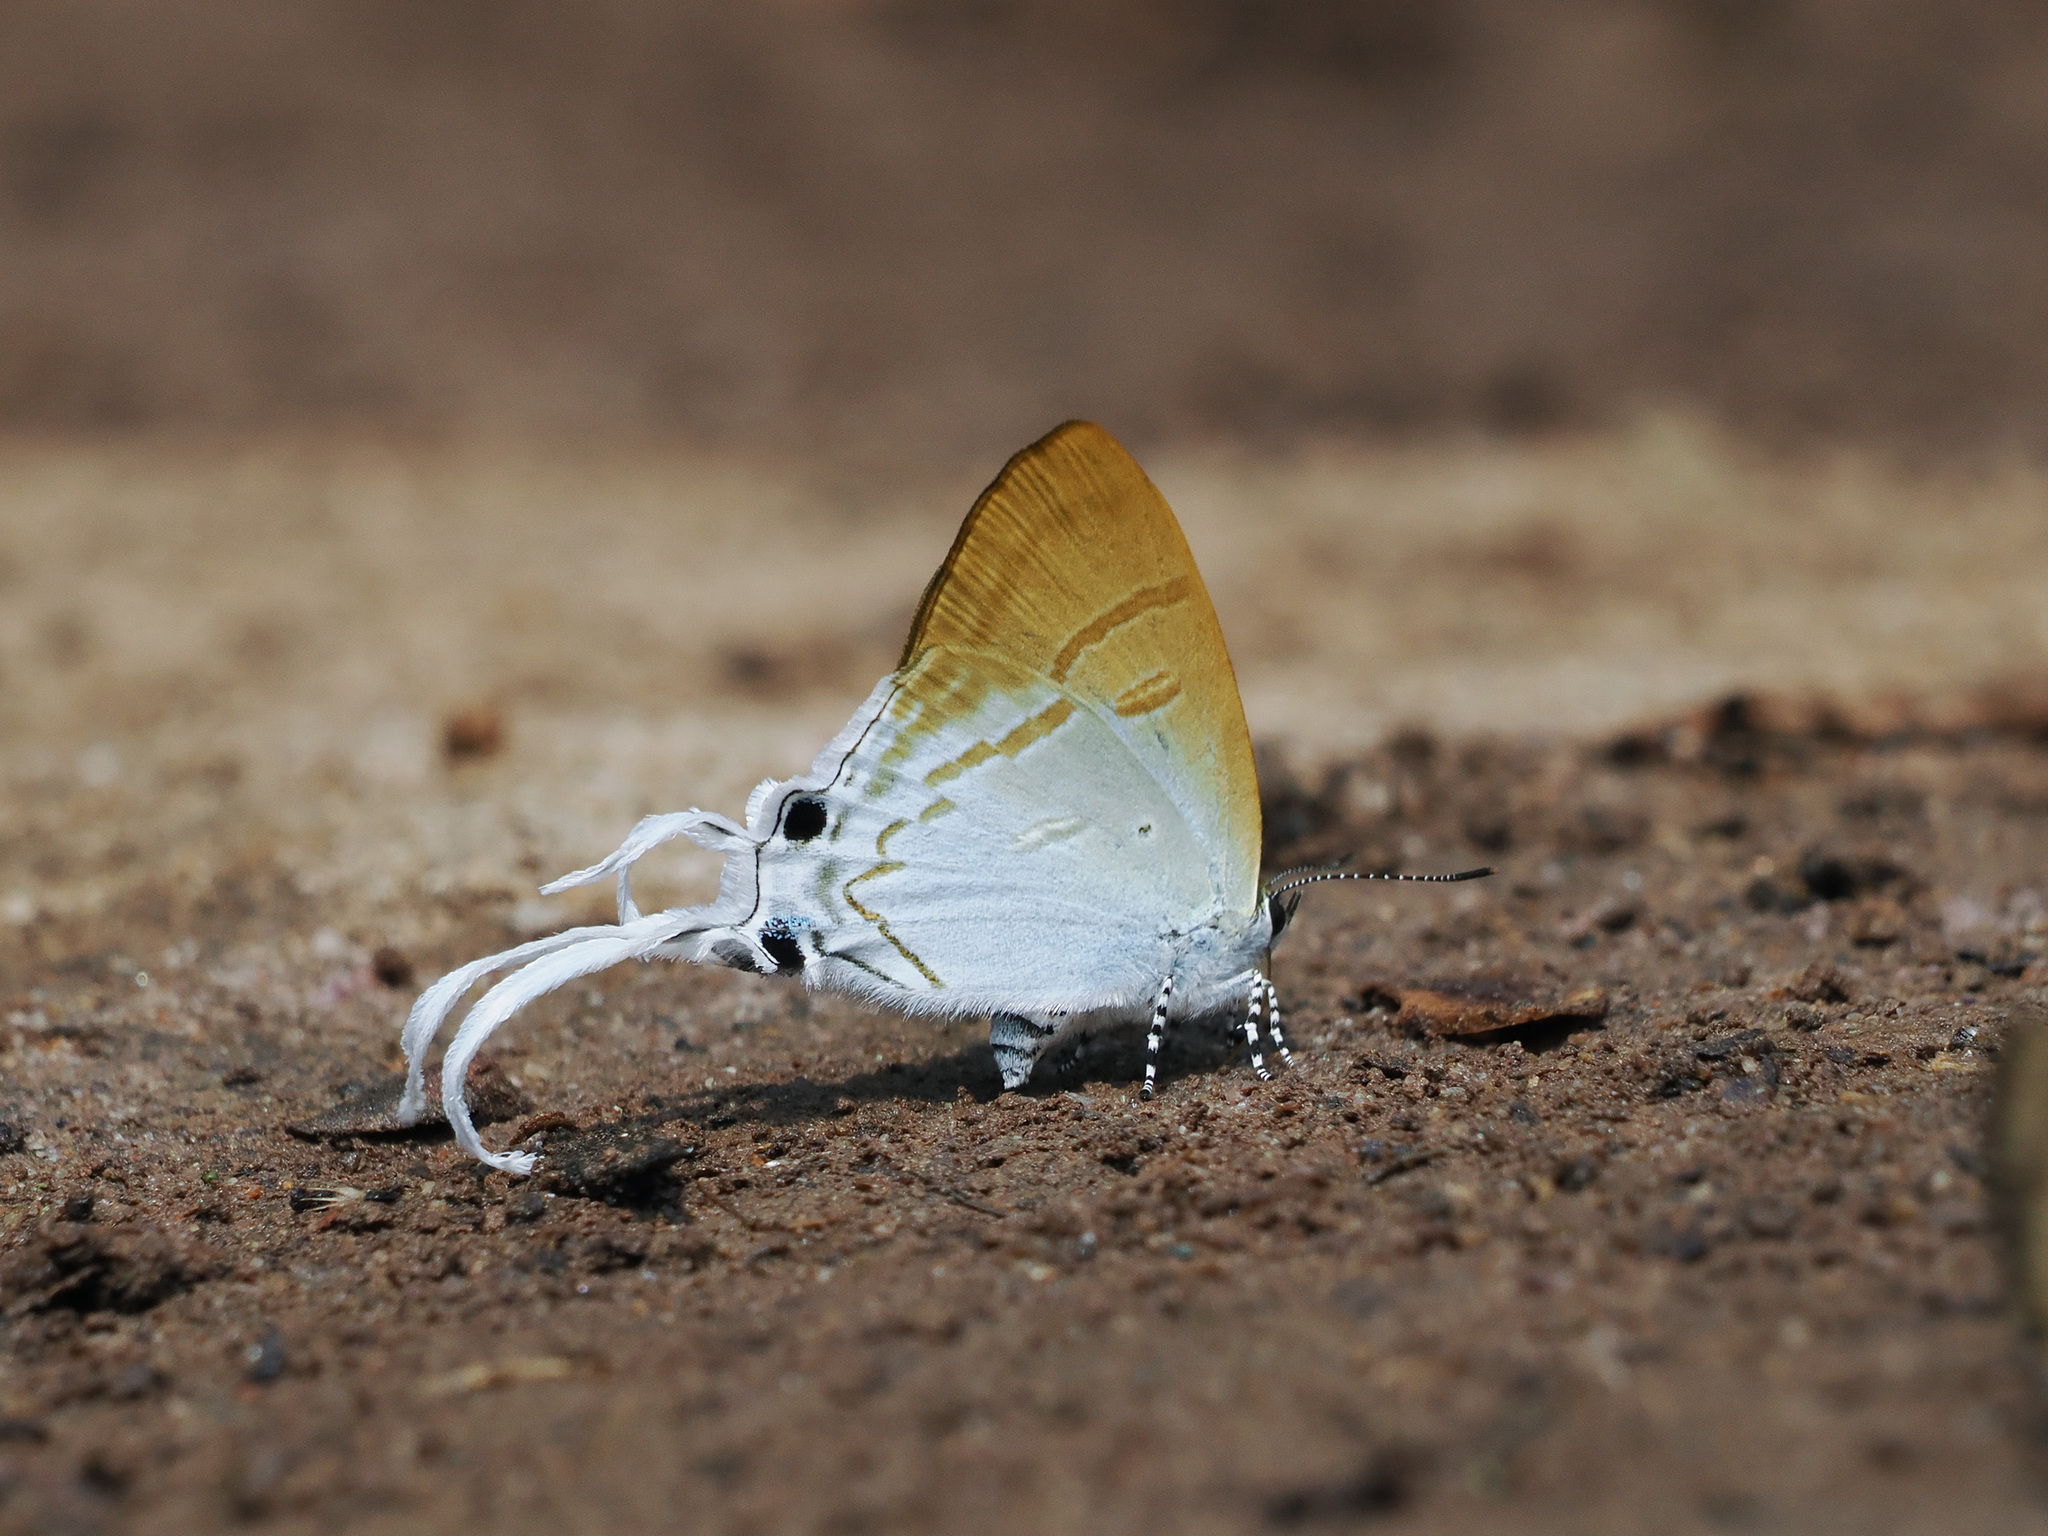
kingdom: Animalia
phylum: Arthropoda
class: Insecta
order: Lepidoptera
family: Lycaenidae
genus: Zeltus
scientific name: Zeltus amasa
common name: Fluffy tit
